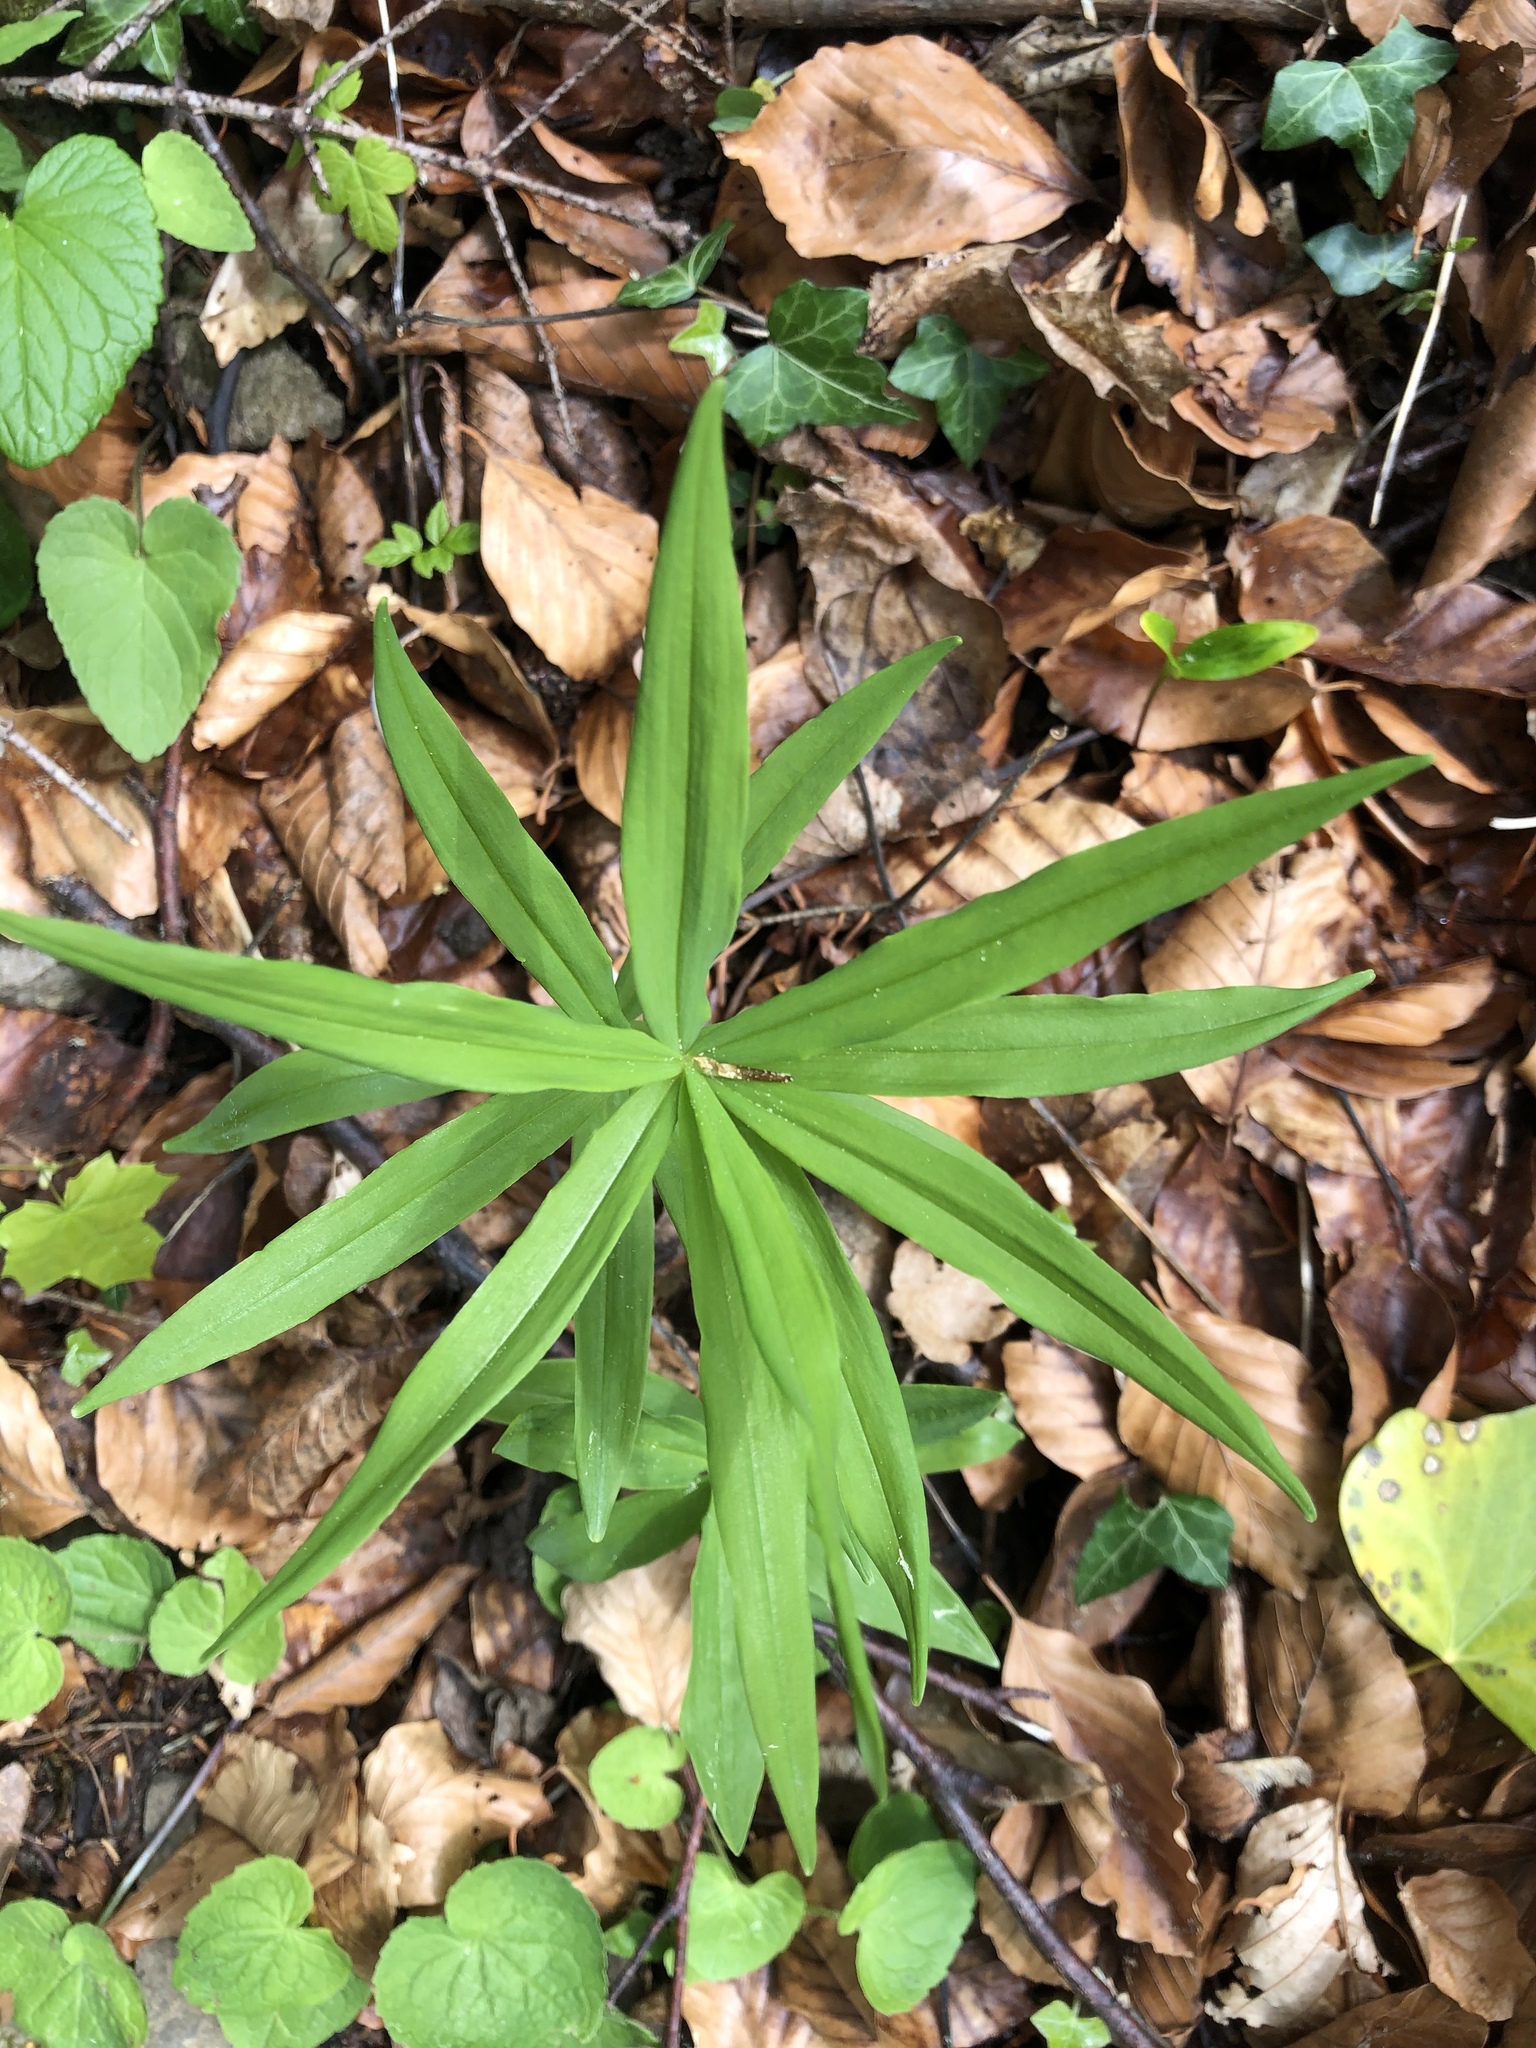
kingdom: Plantae
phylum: Tracheophyta
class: Liliopsida
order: Asparagales
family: Asparagaceae
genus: Polygonatum
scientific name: Polygonatum verticillatum
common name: Whorled solomon's-seal
